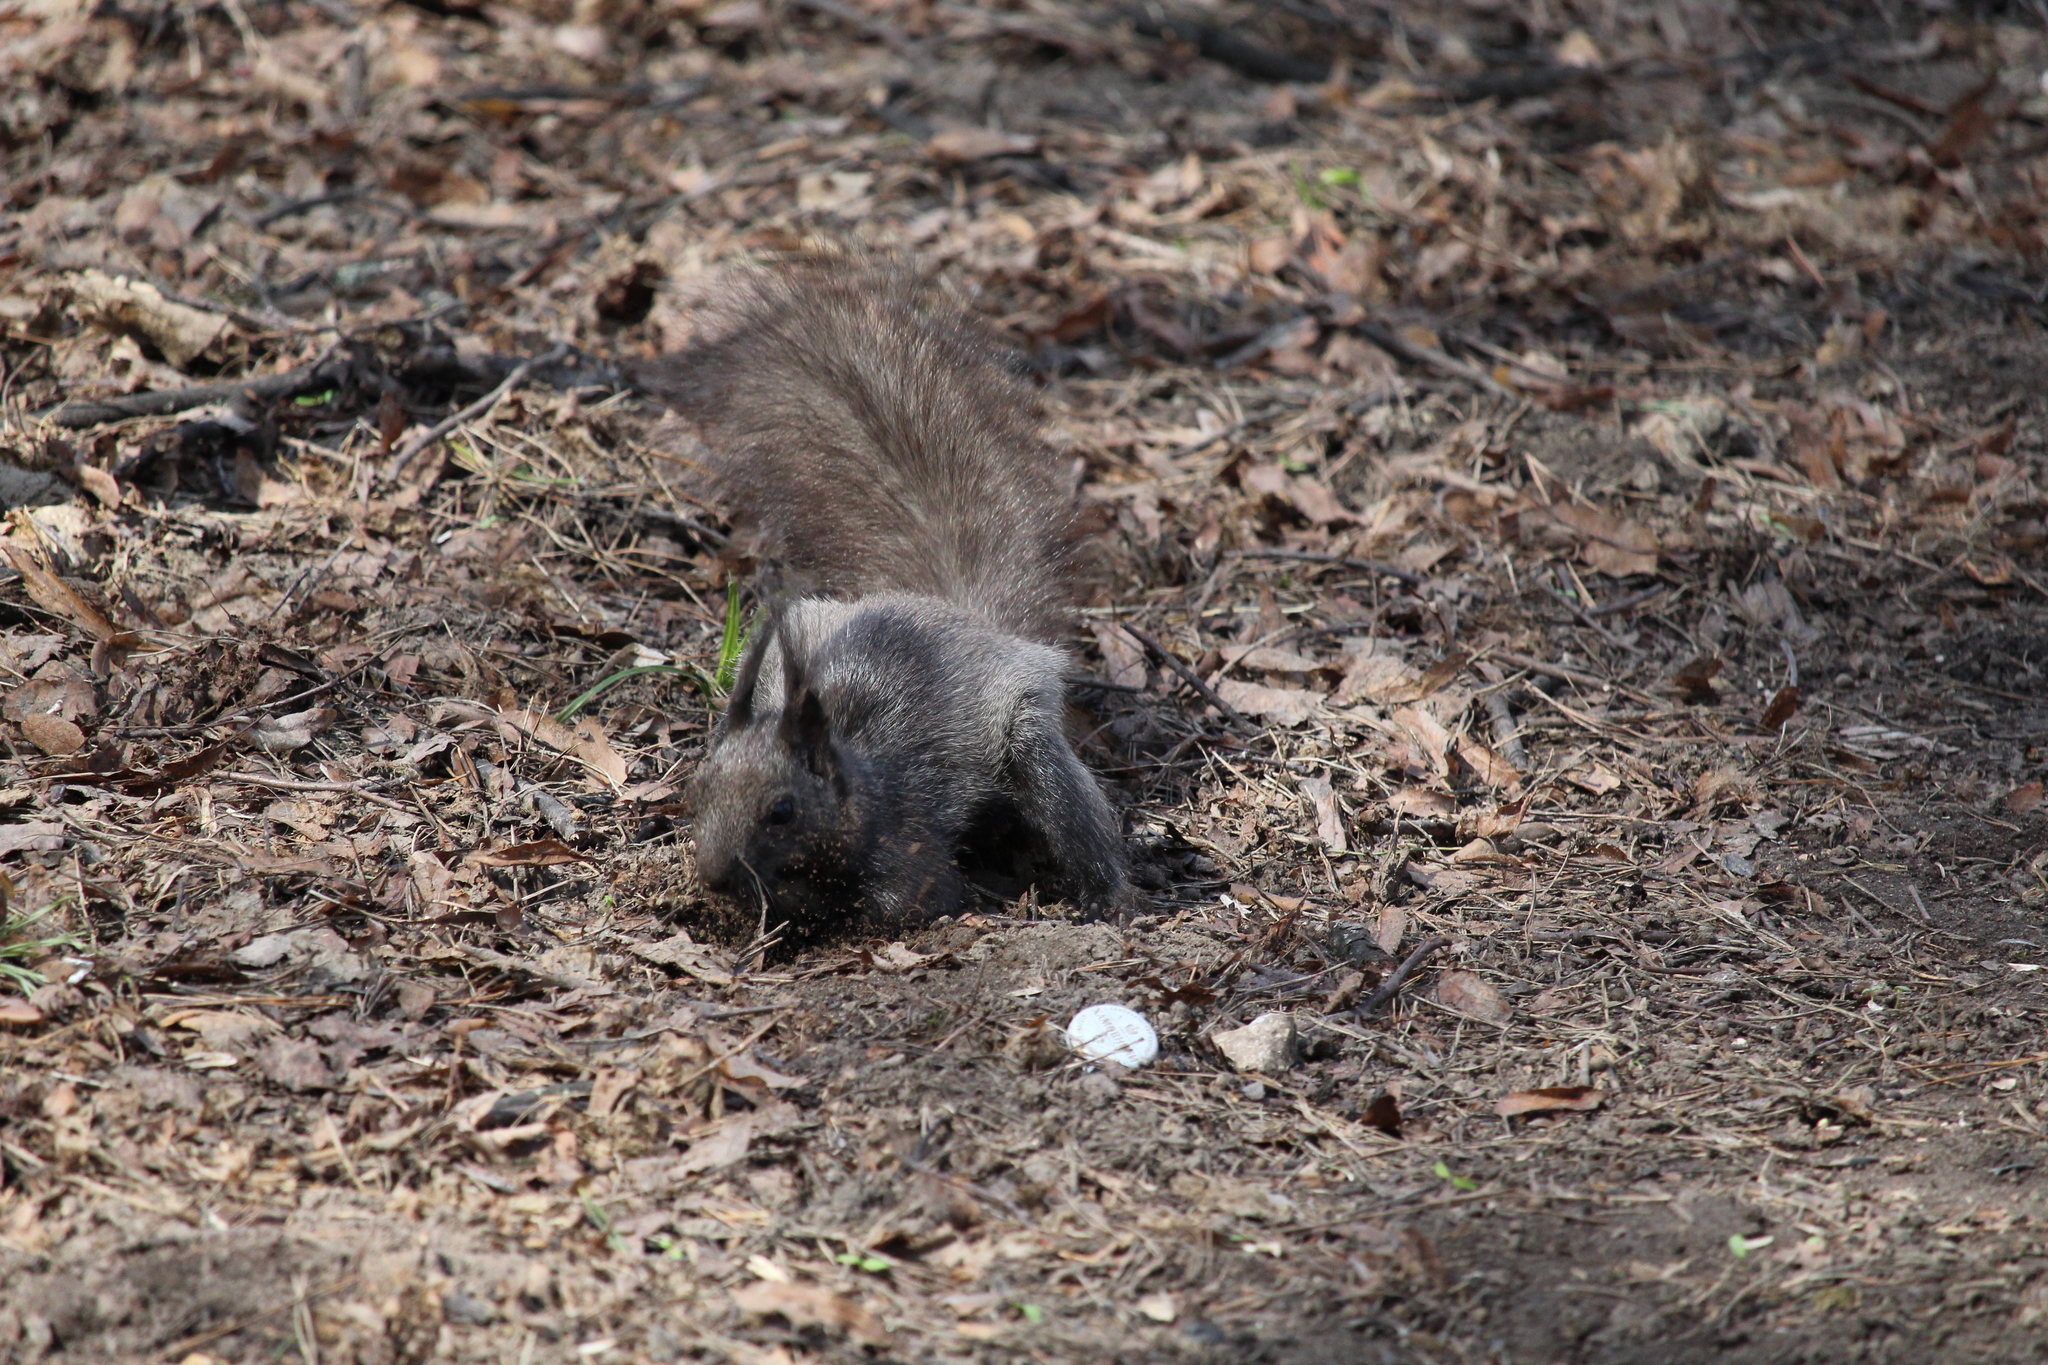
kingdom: Animalia
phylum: Chordata
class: Mammalia
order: Rodentia
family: Sciuridae
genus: Sciurus
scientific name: Sciurus vulgaris
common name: Eurasian red squirrel
